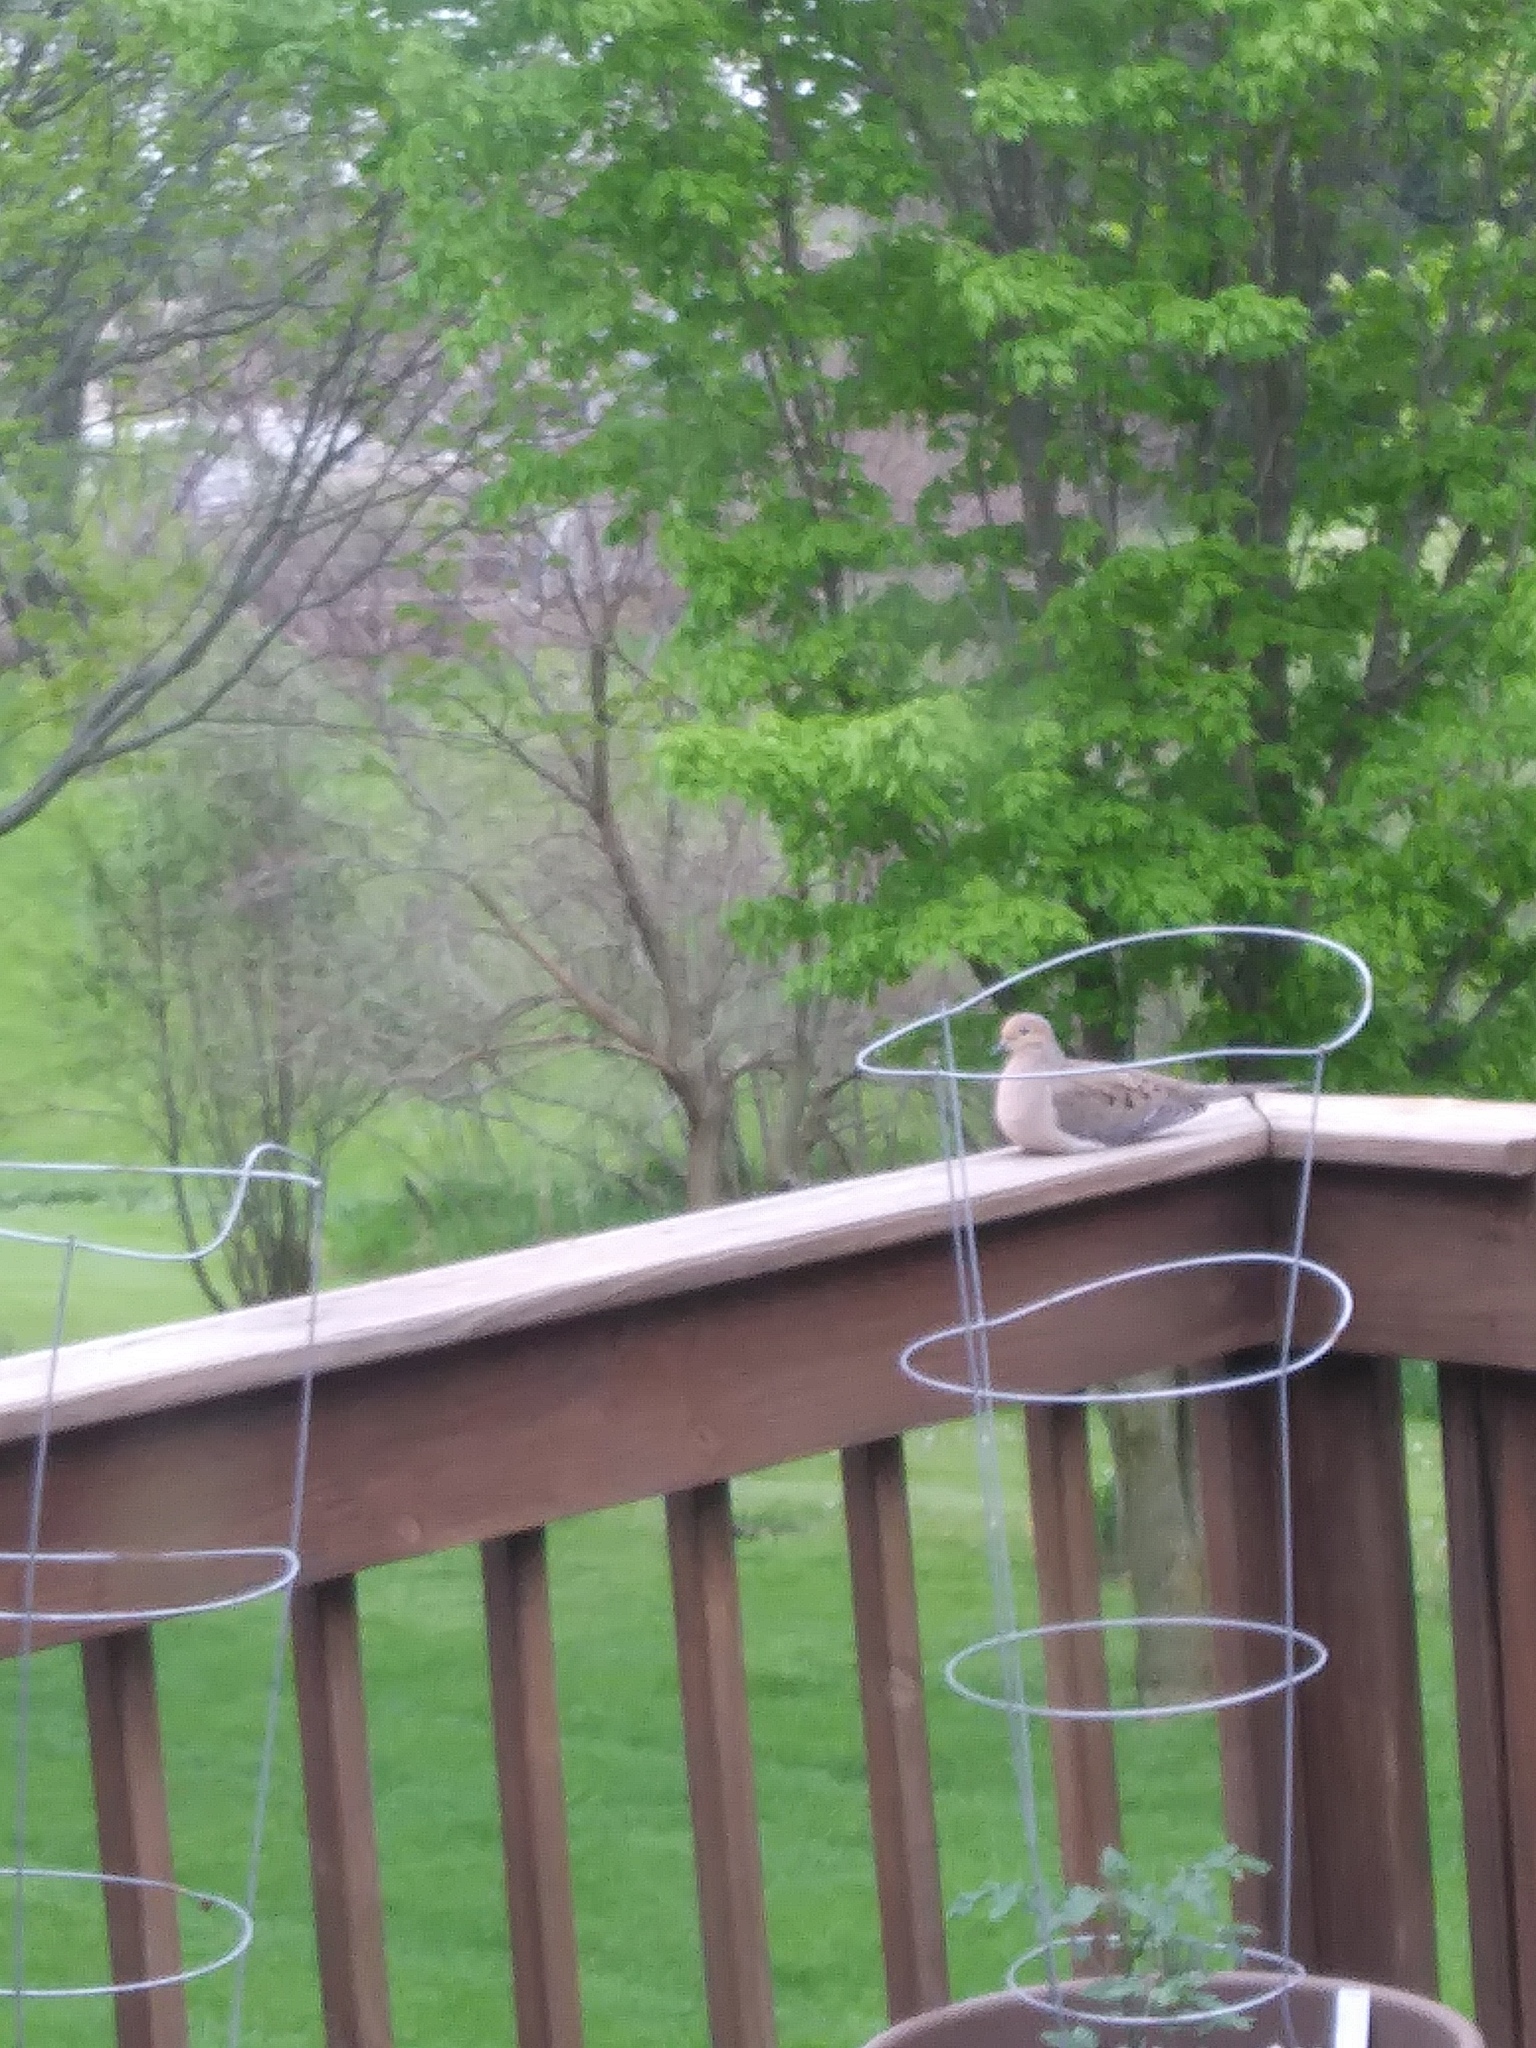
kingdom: Animalia
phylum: Chordata
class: Aves
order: Columbiformes
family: Columbidae
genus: Zenaida
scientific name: Zenaida macroura
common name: Mourning dove
